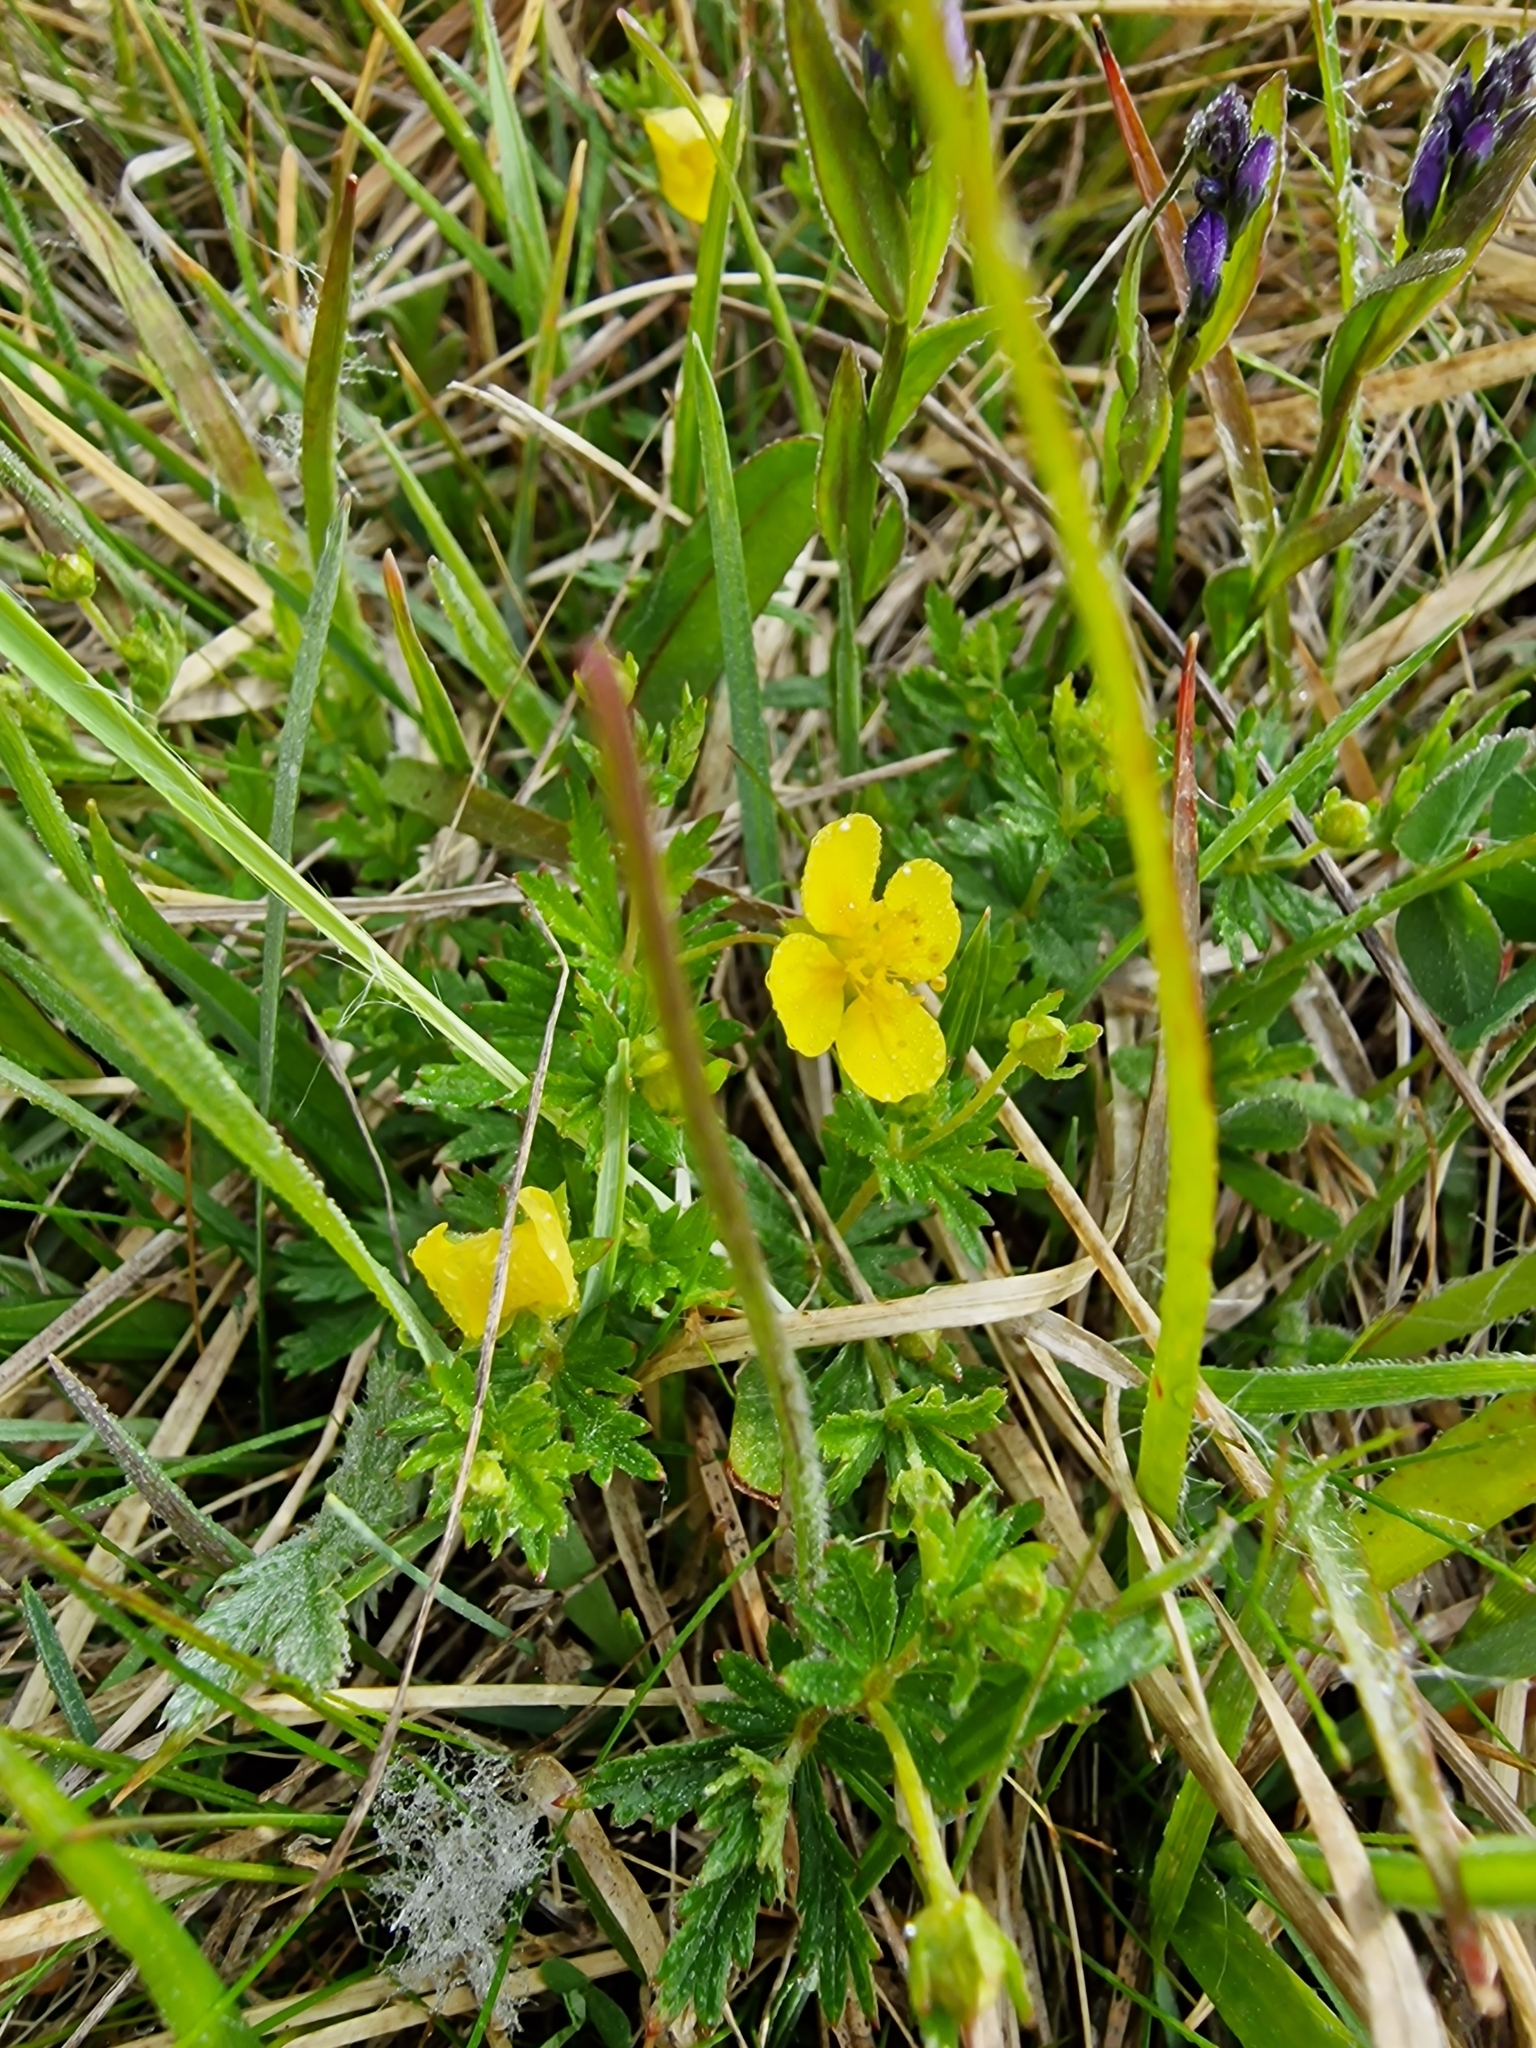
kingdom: Plantae
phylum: Tracheophyta
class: Magnoliopsida
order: Rosales
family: Rosaceae
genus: Potentilla
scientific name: Potentilla erecta
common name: Tormentil
